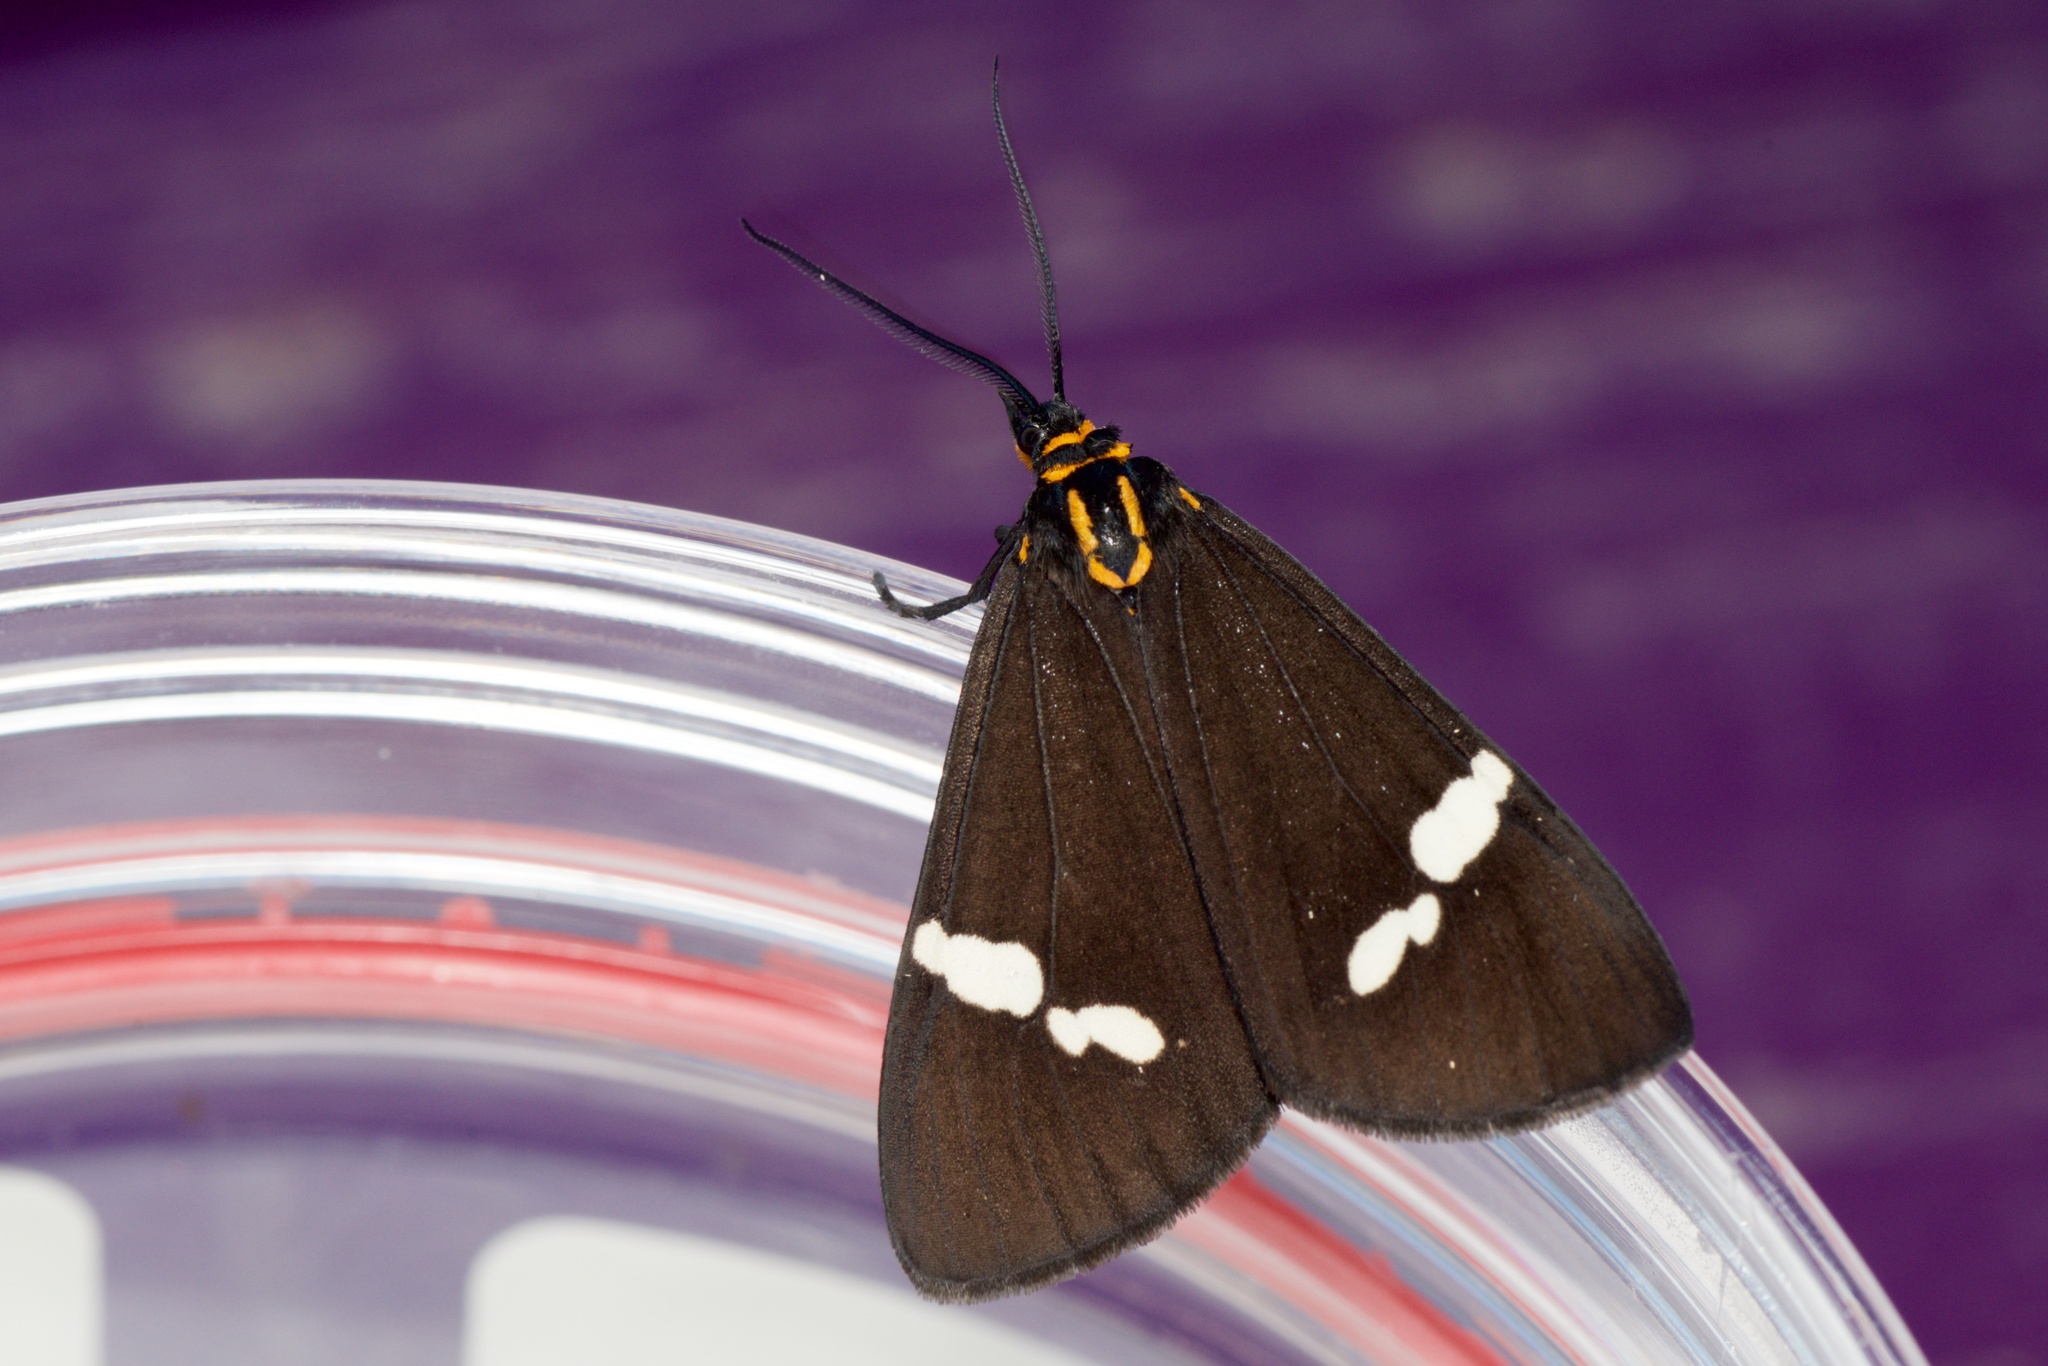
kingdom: Animalia
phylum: Arthropoda
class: Insecta
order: Lepidoptera
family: Erebidae
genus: Nyctemera
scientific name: Nyctemera annulatum
